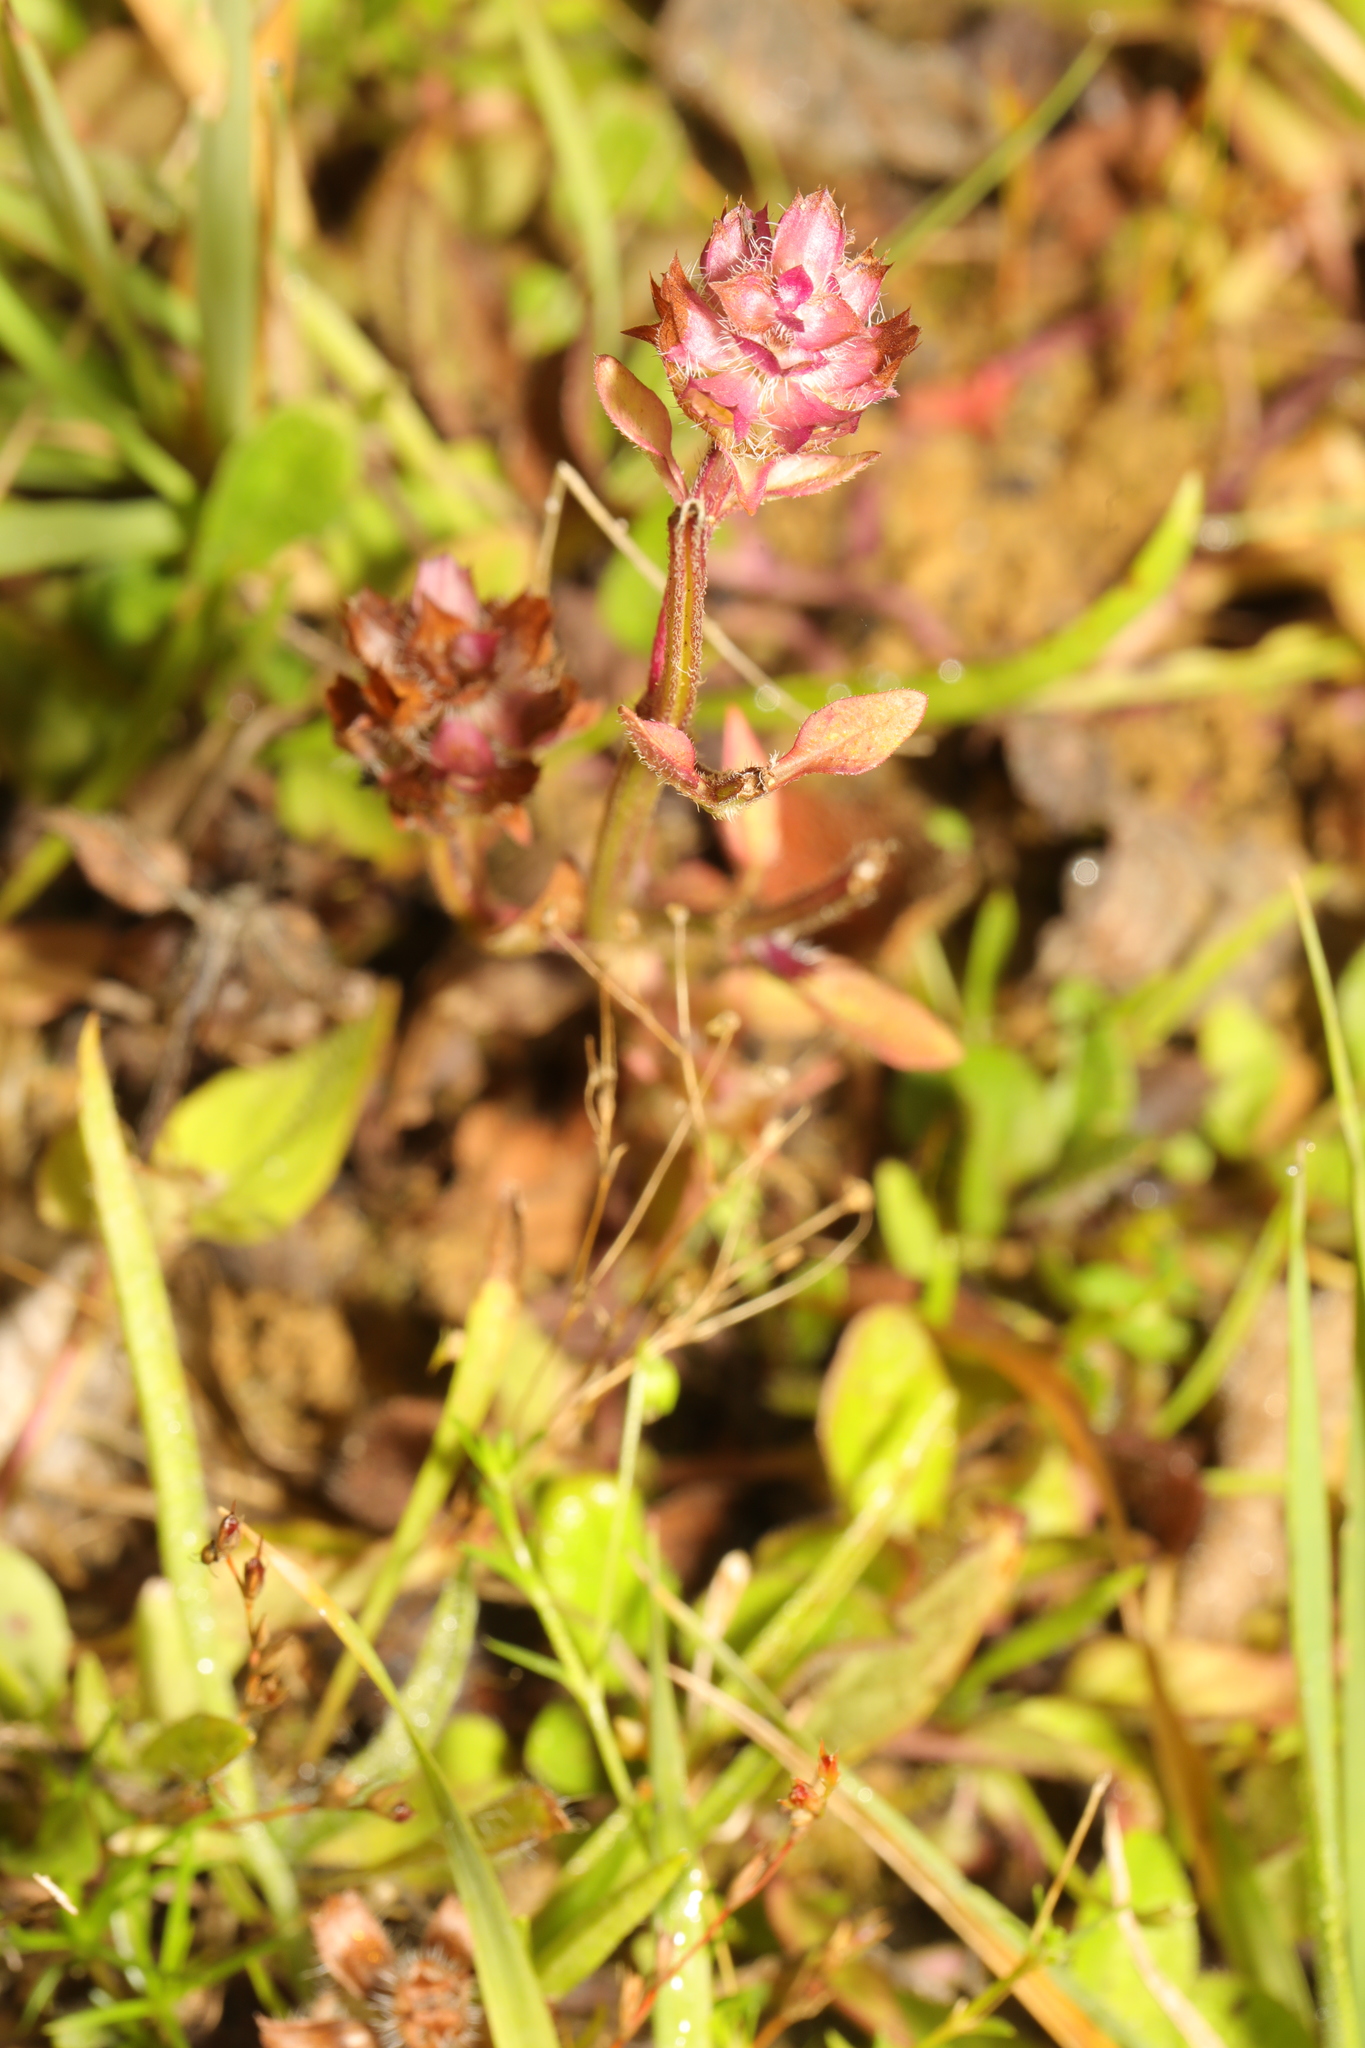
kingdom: Plantae
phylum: Tracheophyta
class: Magnoliopsida
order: Lamiales
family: Lamiaceae
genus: Prunella
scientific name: Prunella vulgaris
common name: Heal-all
